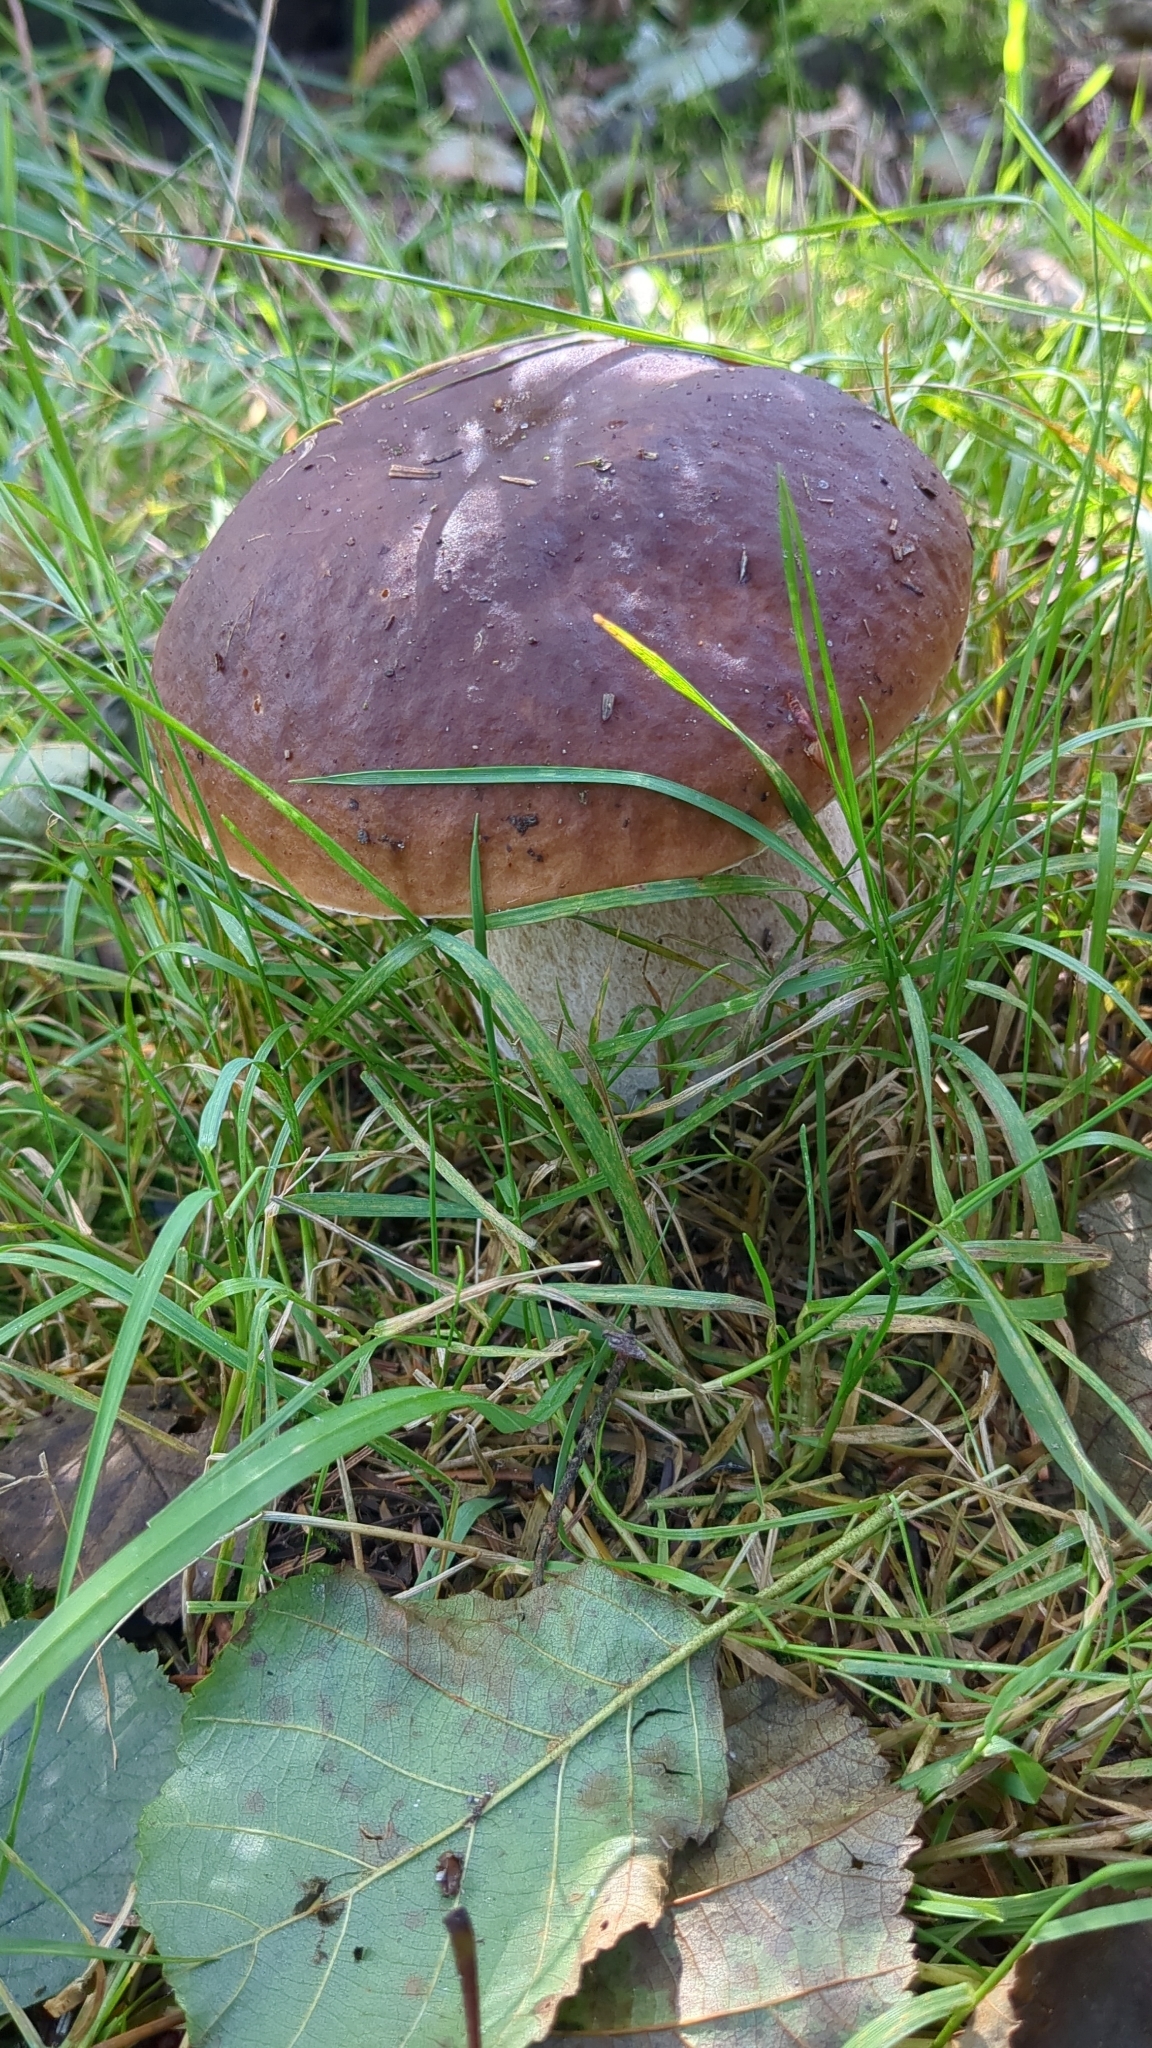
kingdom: Fungi
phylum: Basidiomycota
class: Agaricomycetes
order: Boletales
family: Boletaceae
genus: Boletus
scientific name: Boletus edulis
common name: Cep
